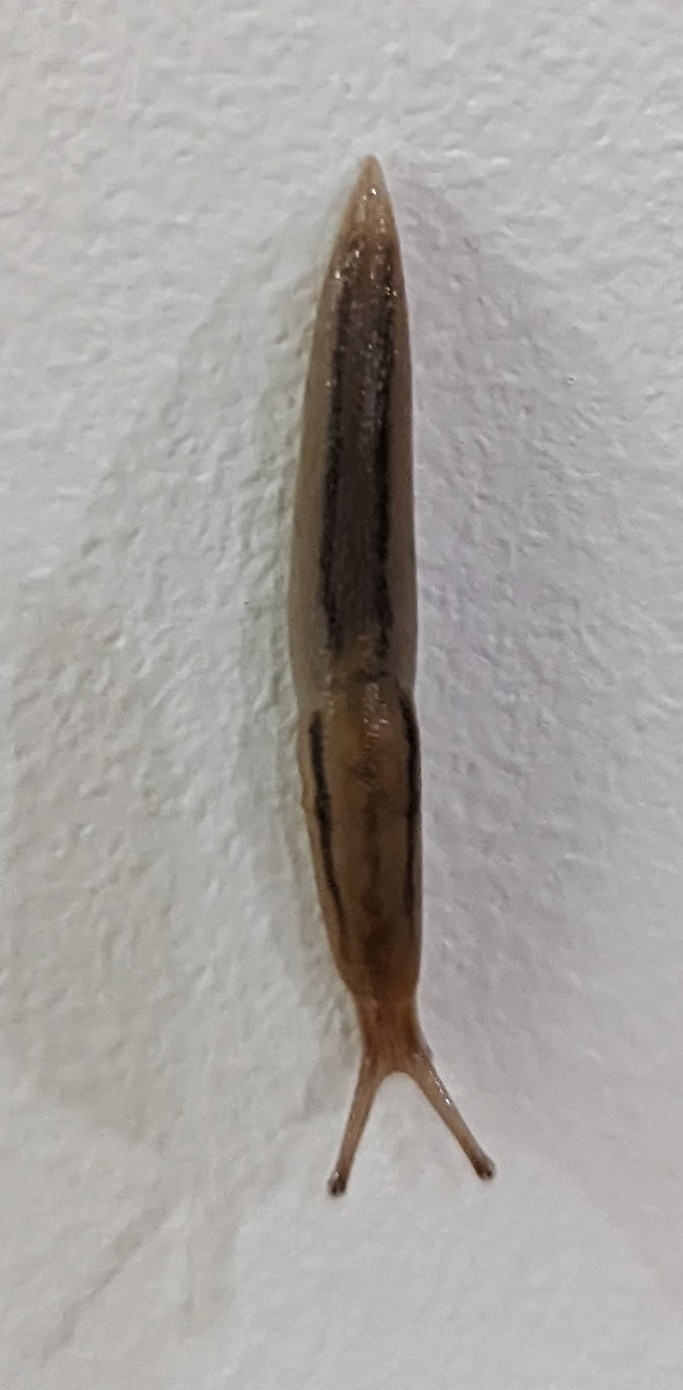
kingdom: Animalia
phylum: Mollusca
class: Gastropoda
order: Stylommatophora
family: Limacidae
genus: Ambigolimax
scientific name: Ambigolimax
